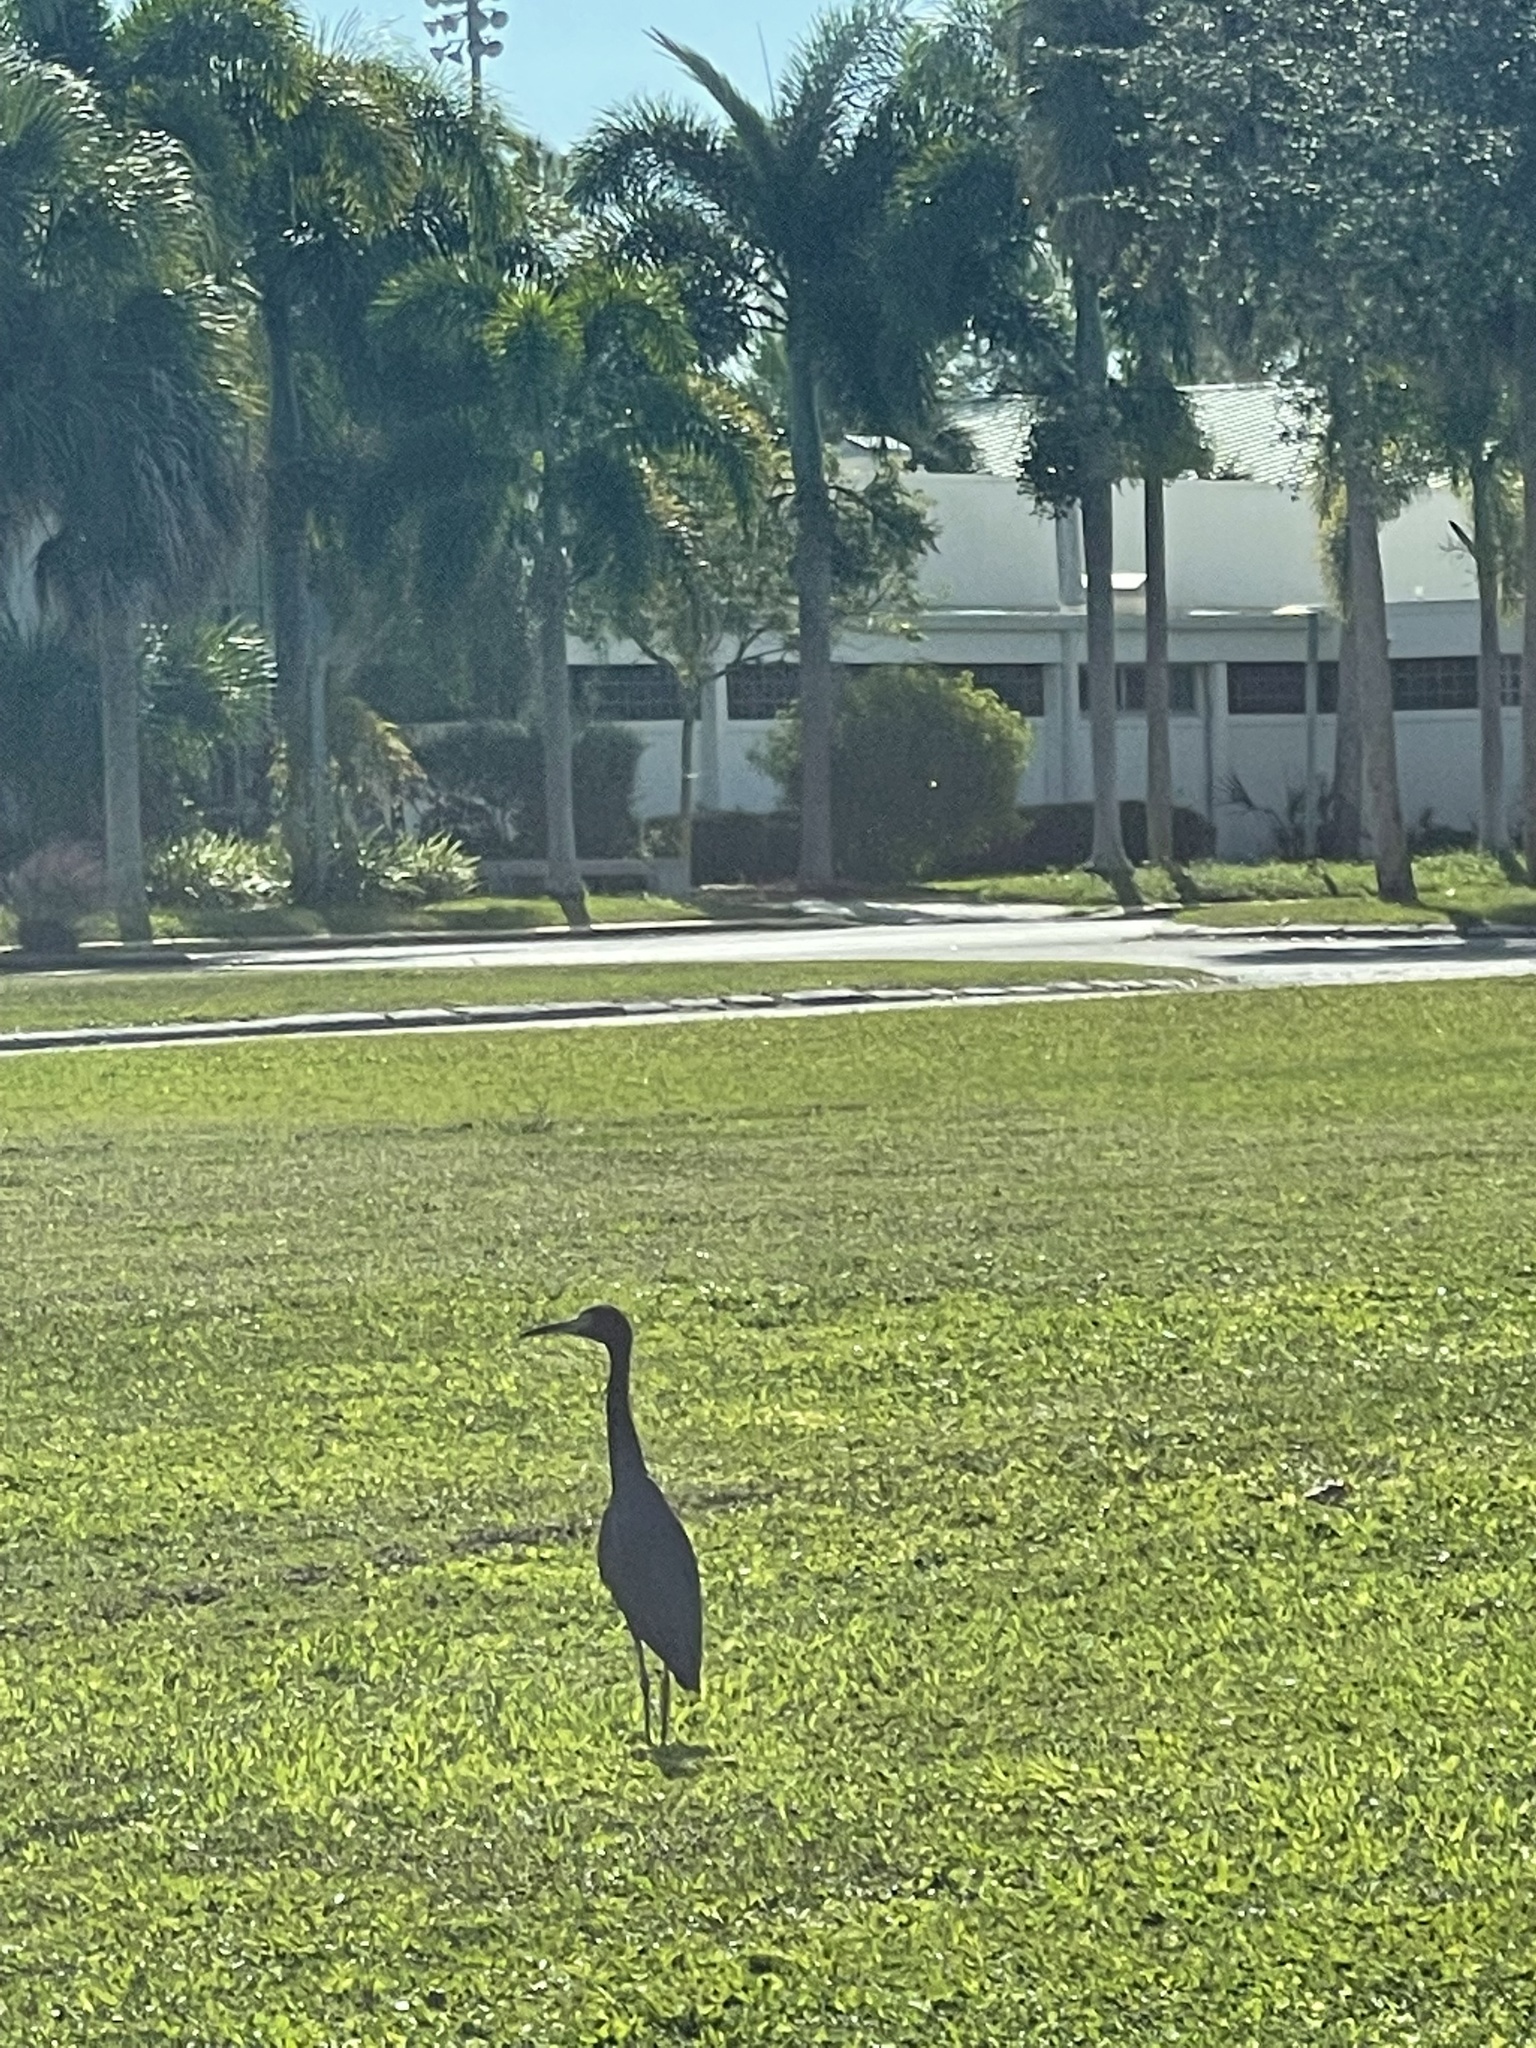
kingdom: Animalia
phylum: Chordata
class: Aves
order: Pelecaniformes
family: Ardeidae
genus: Egretta
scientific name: Egretta caerulea
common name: Little blue heron
